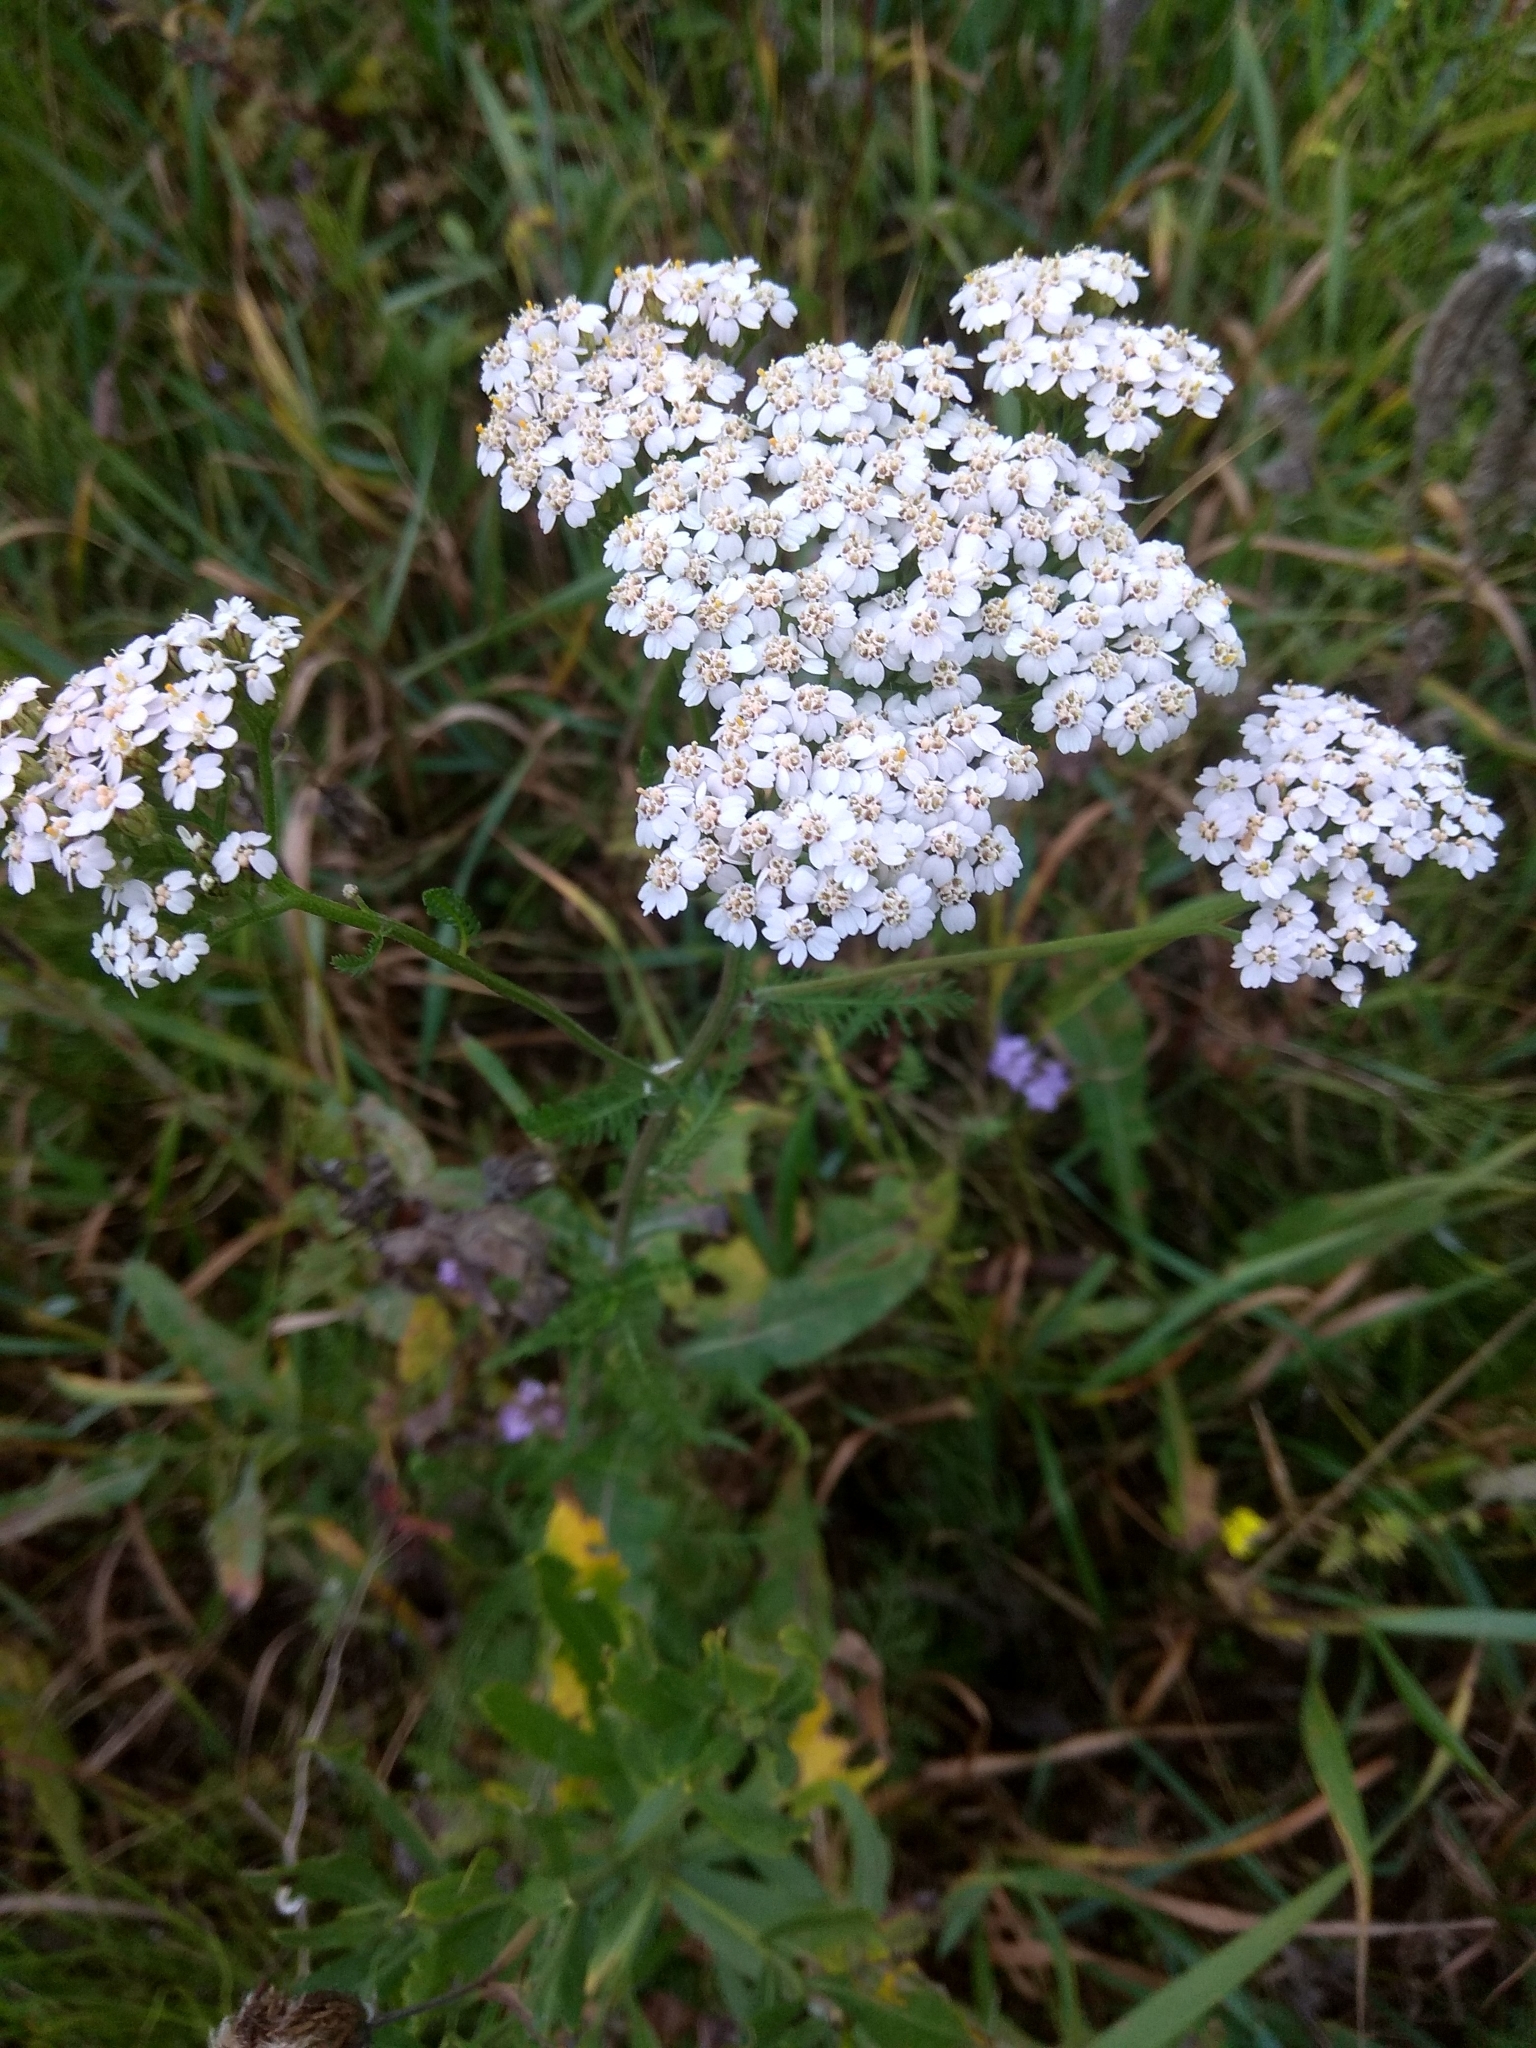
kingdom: Plantae
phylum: Tracheophyta
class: Magnoliopsida
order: Asterales
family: Asteraceae
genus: Achillea
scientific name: Achillea millefolium
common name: Yarrow
